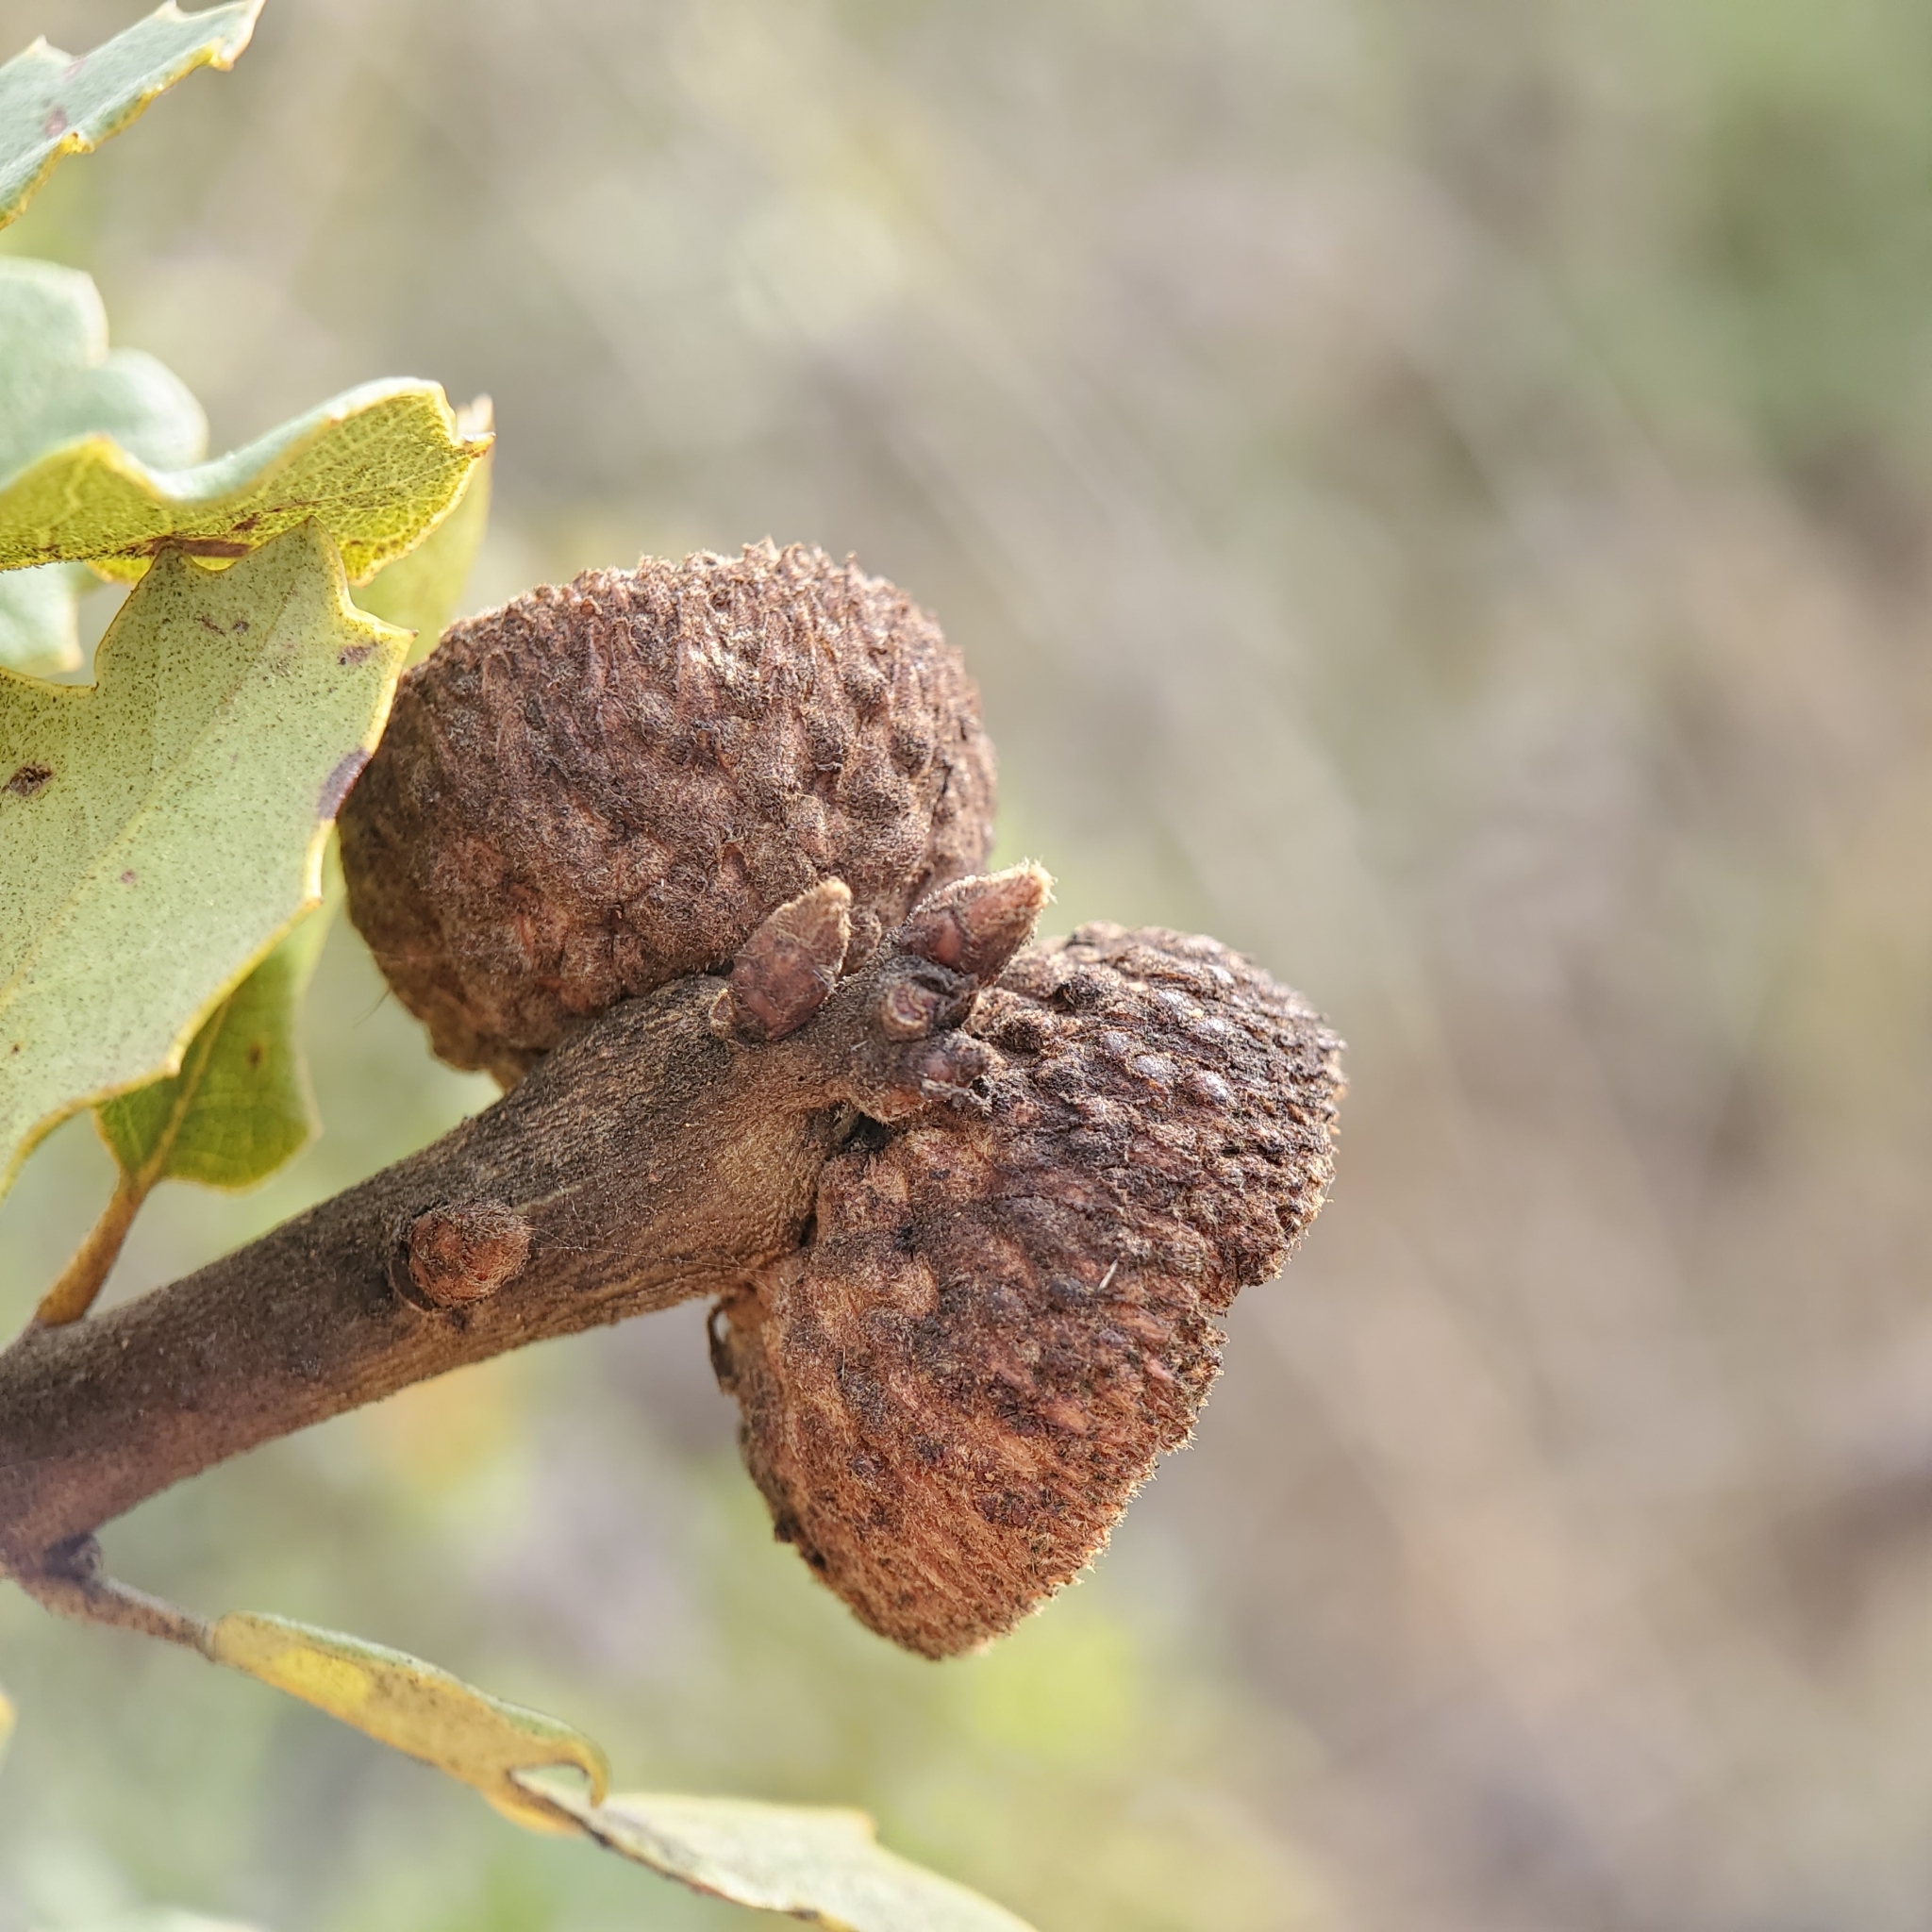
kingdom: Plantae
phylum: Tracheophyta
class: Magnoliopsida
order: Fagales
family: Fagaceae
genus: Quercus
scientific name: Quercus berberidifolia
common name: California scrub oak
